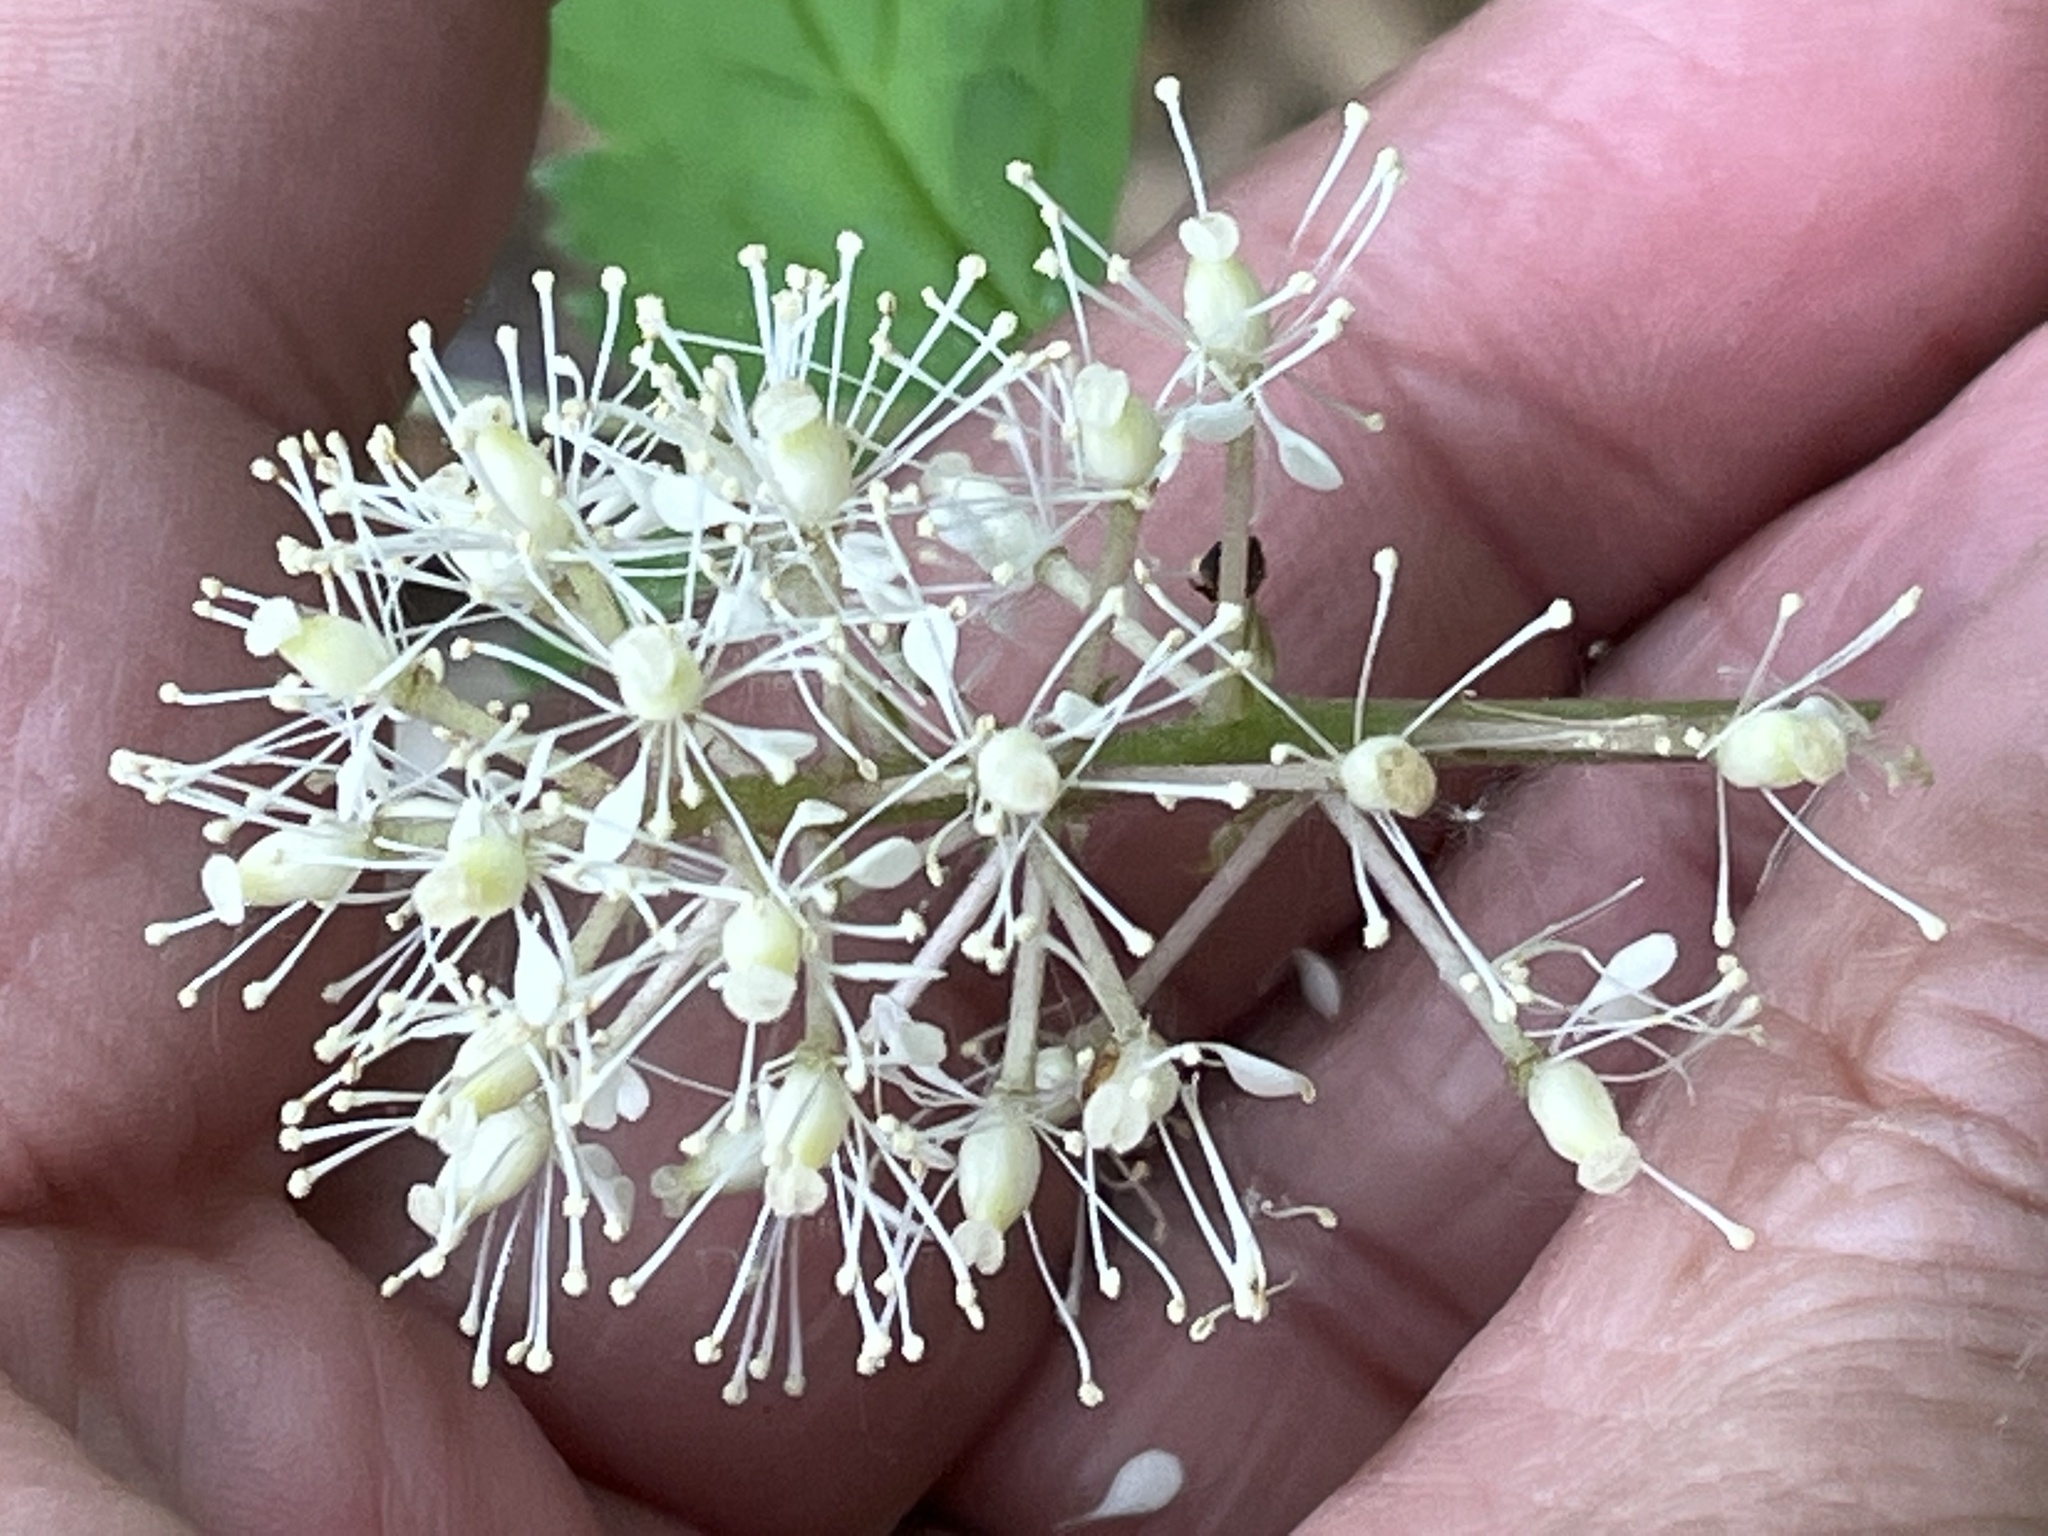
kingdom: Plantae
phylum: Tracheophyta
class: Magnoliopsida
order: Ranunculales
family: Ranunculaceae
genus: Actaea
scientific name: Actaea rubra
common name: Red baneberry
